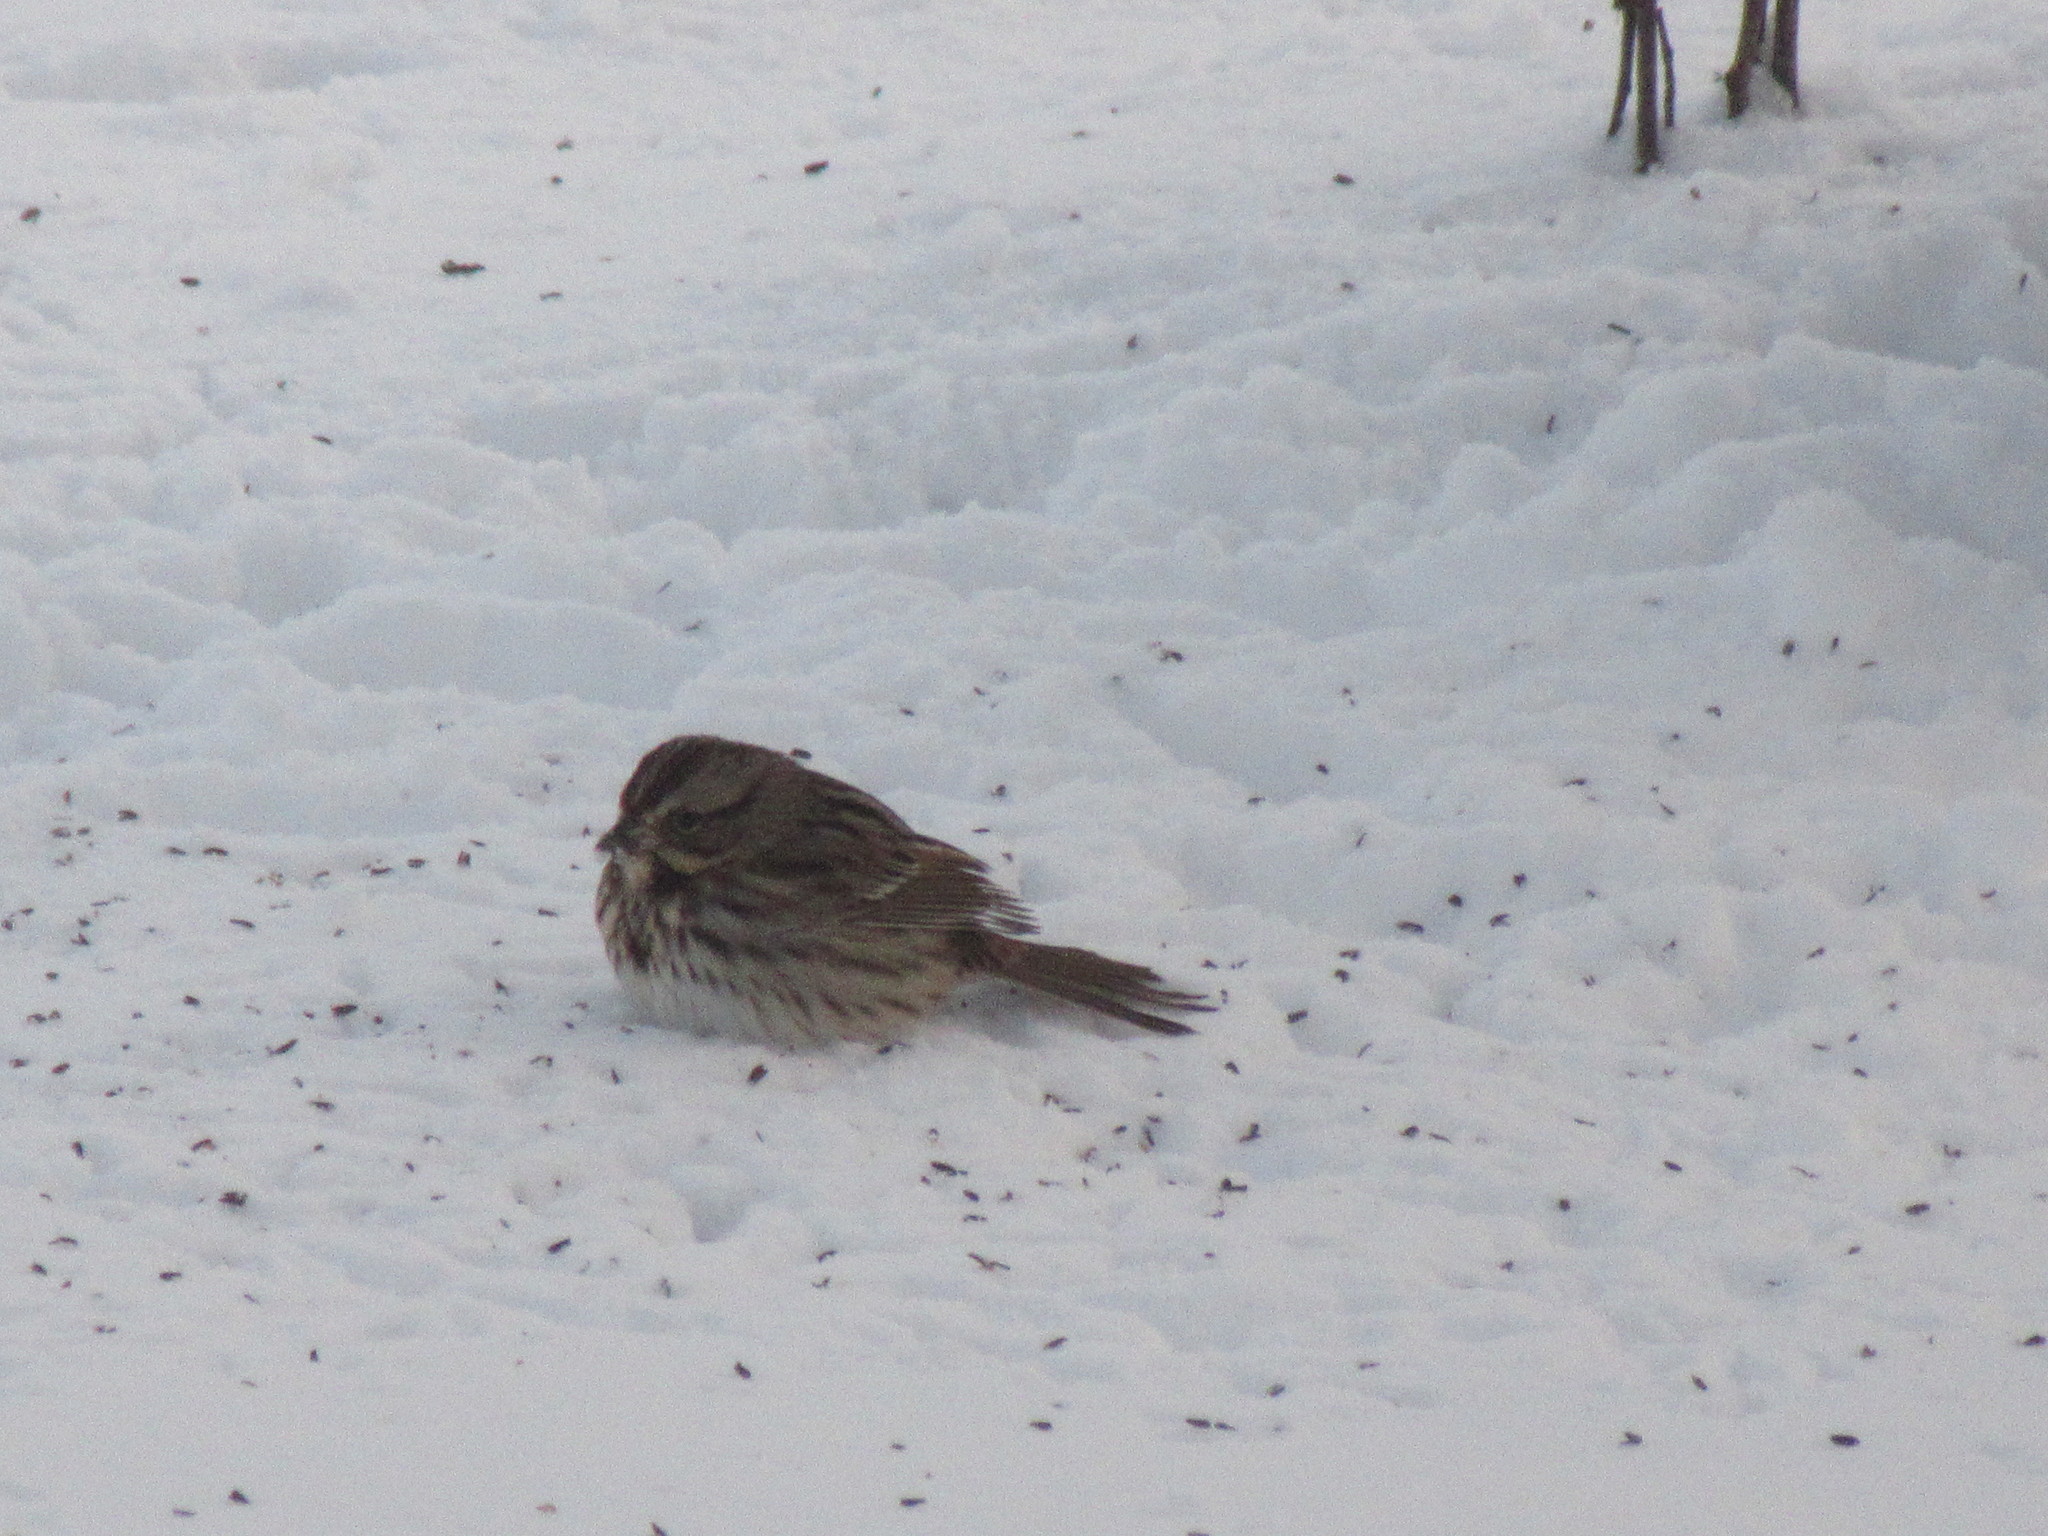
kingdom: Animalia
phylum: Chordata
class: Aves
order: Passeriformes
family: Passerellidae
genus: Melospiza
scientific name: Melospiza melodia
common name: Song sparrow
